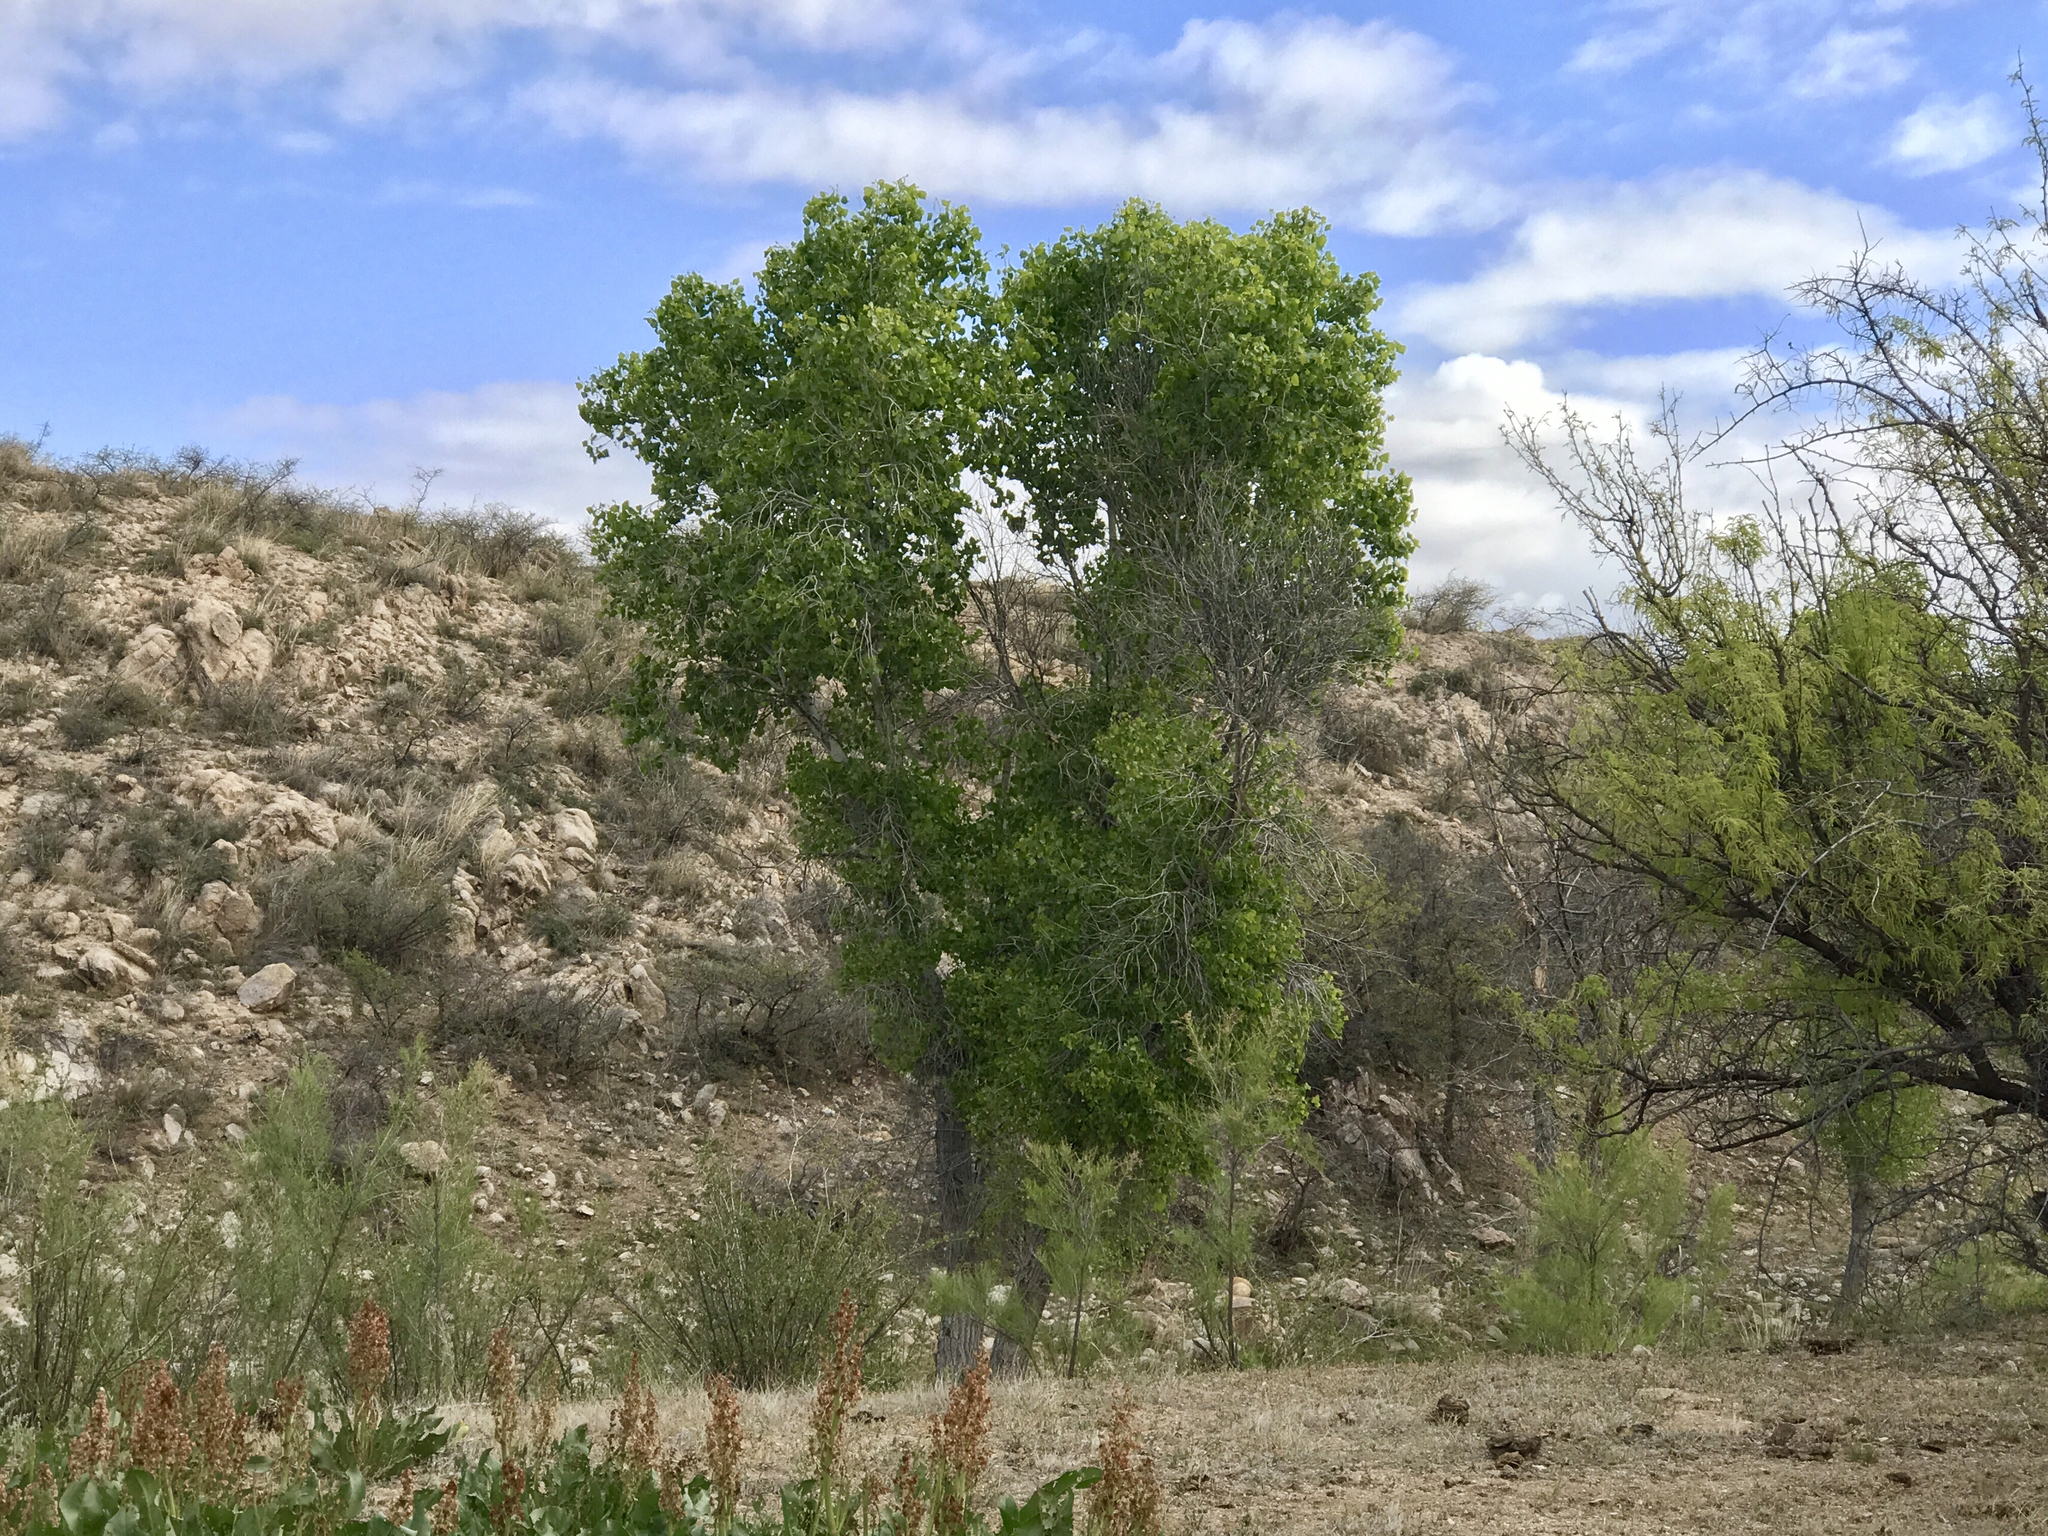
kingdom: Plantae
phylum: Tracheophyta
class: Magnoliopsida
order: Malpighiales
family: Salicaceae
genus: Populus
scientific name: Populus fremontii
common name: Fremont's cottonwood
